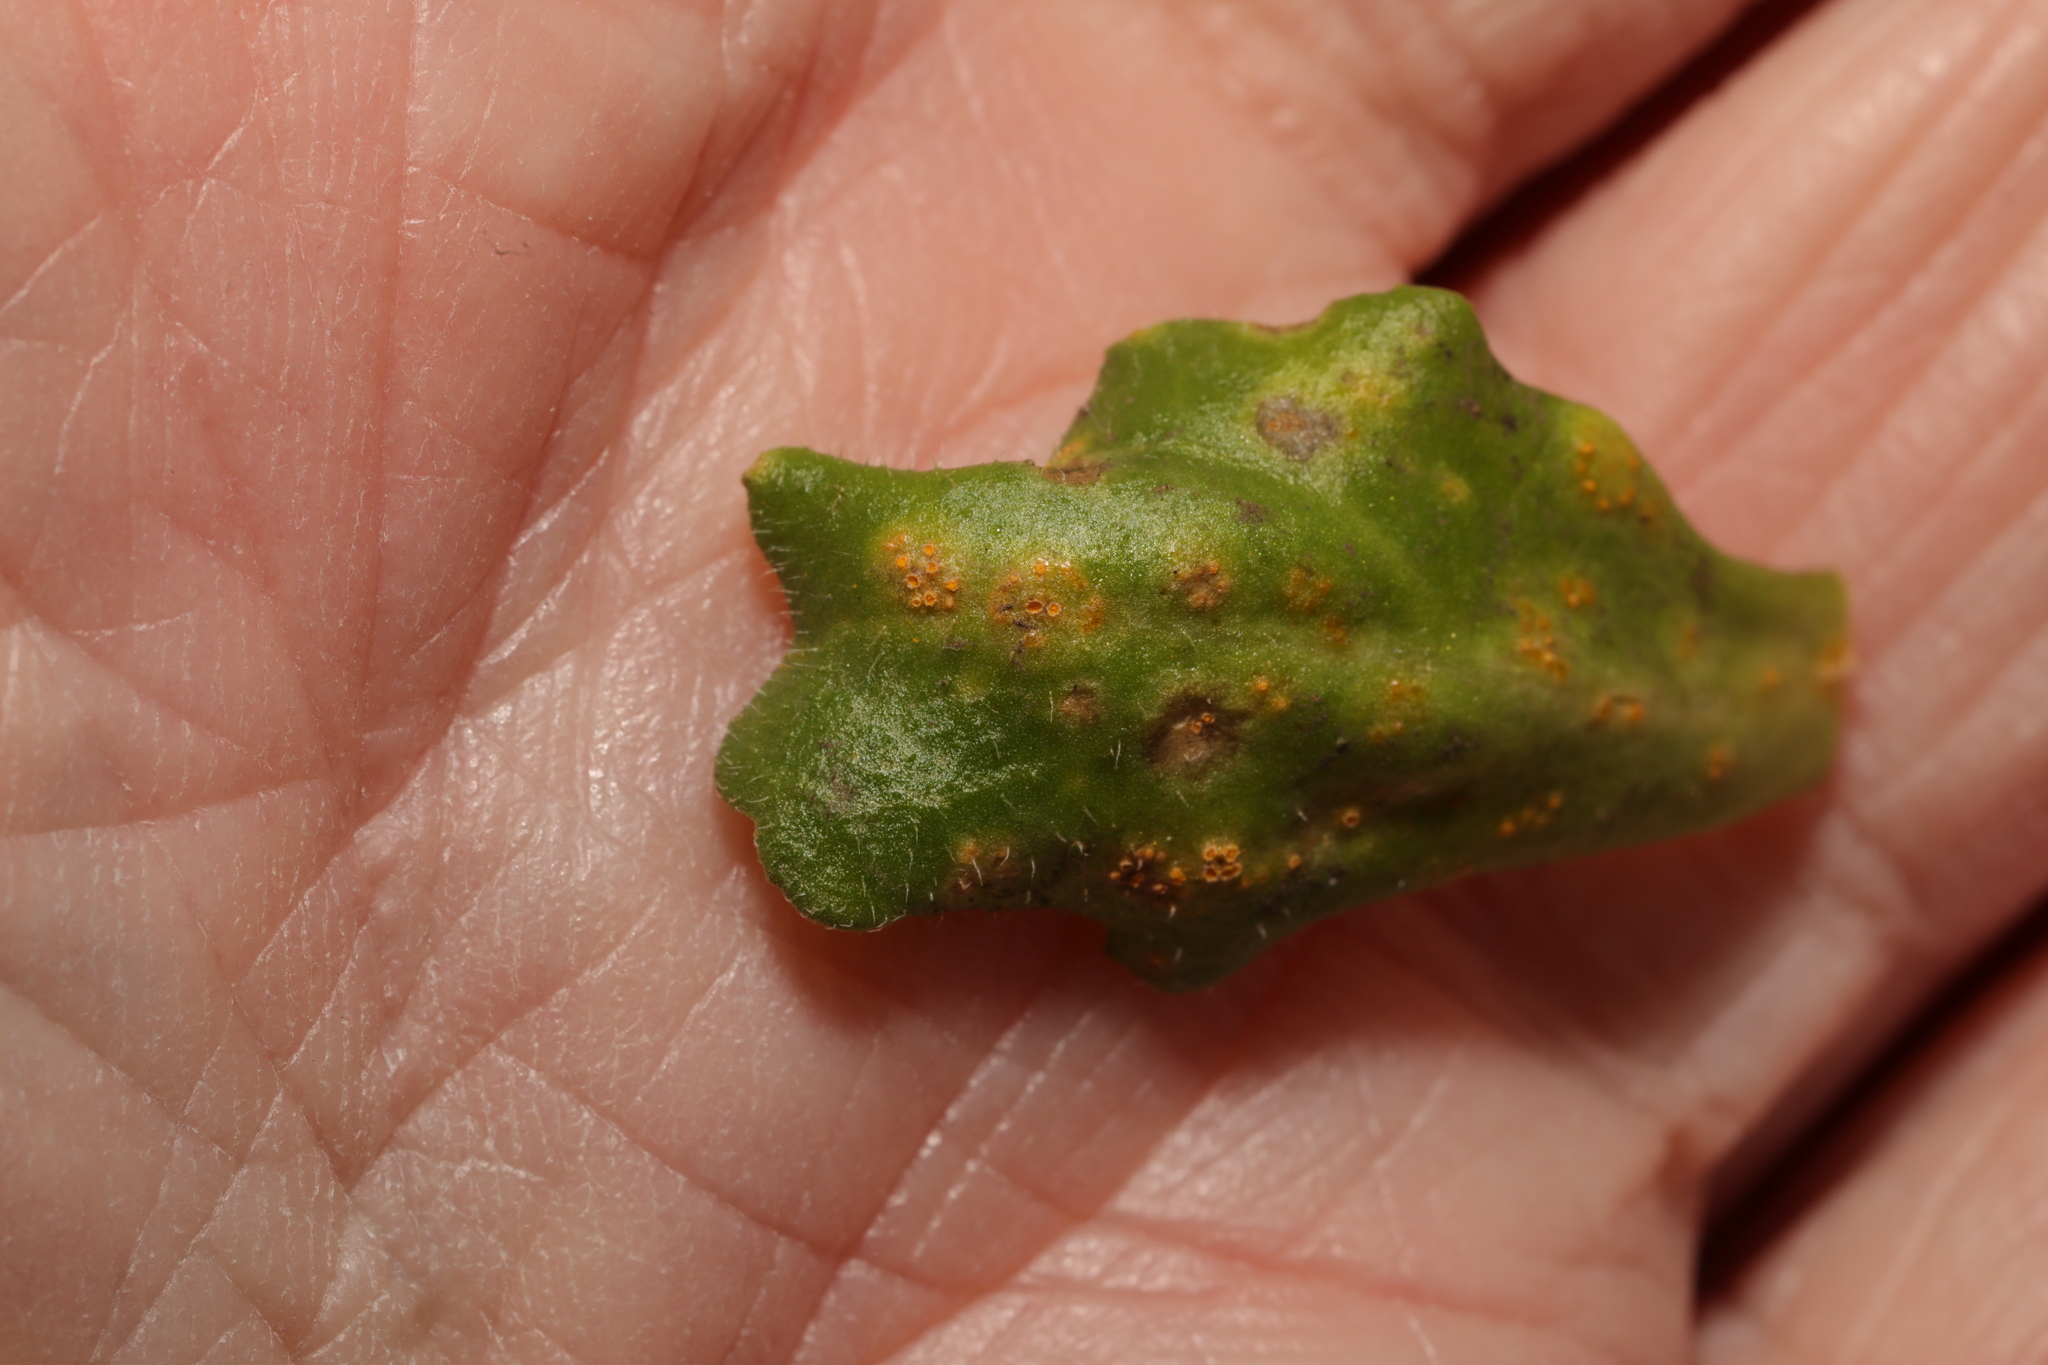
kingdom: Fungi
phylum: Basidiomycota
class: Pucciniomycetes
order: Pucciniales
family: Pucciniaceae
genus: Puccinia
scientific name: Puccinia lagenophorae
